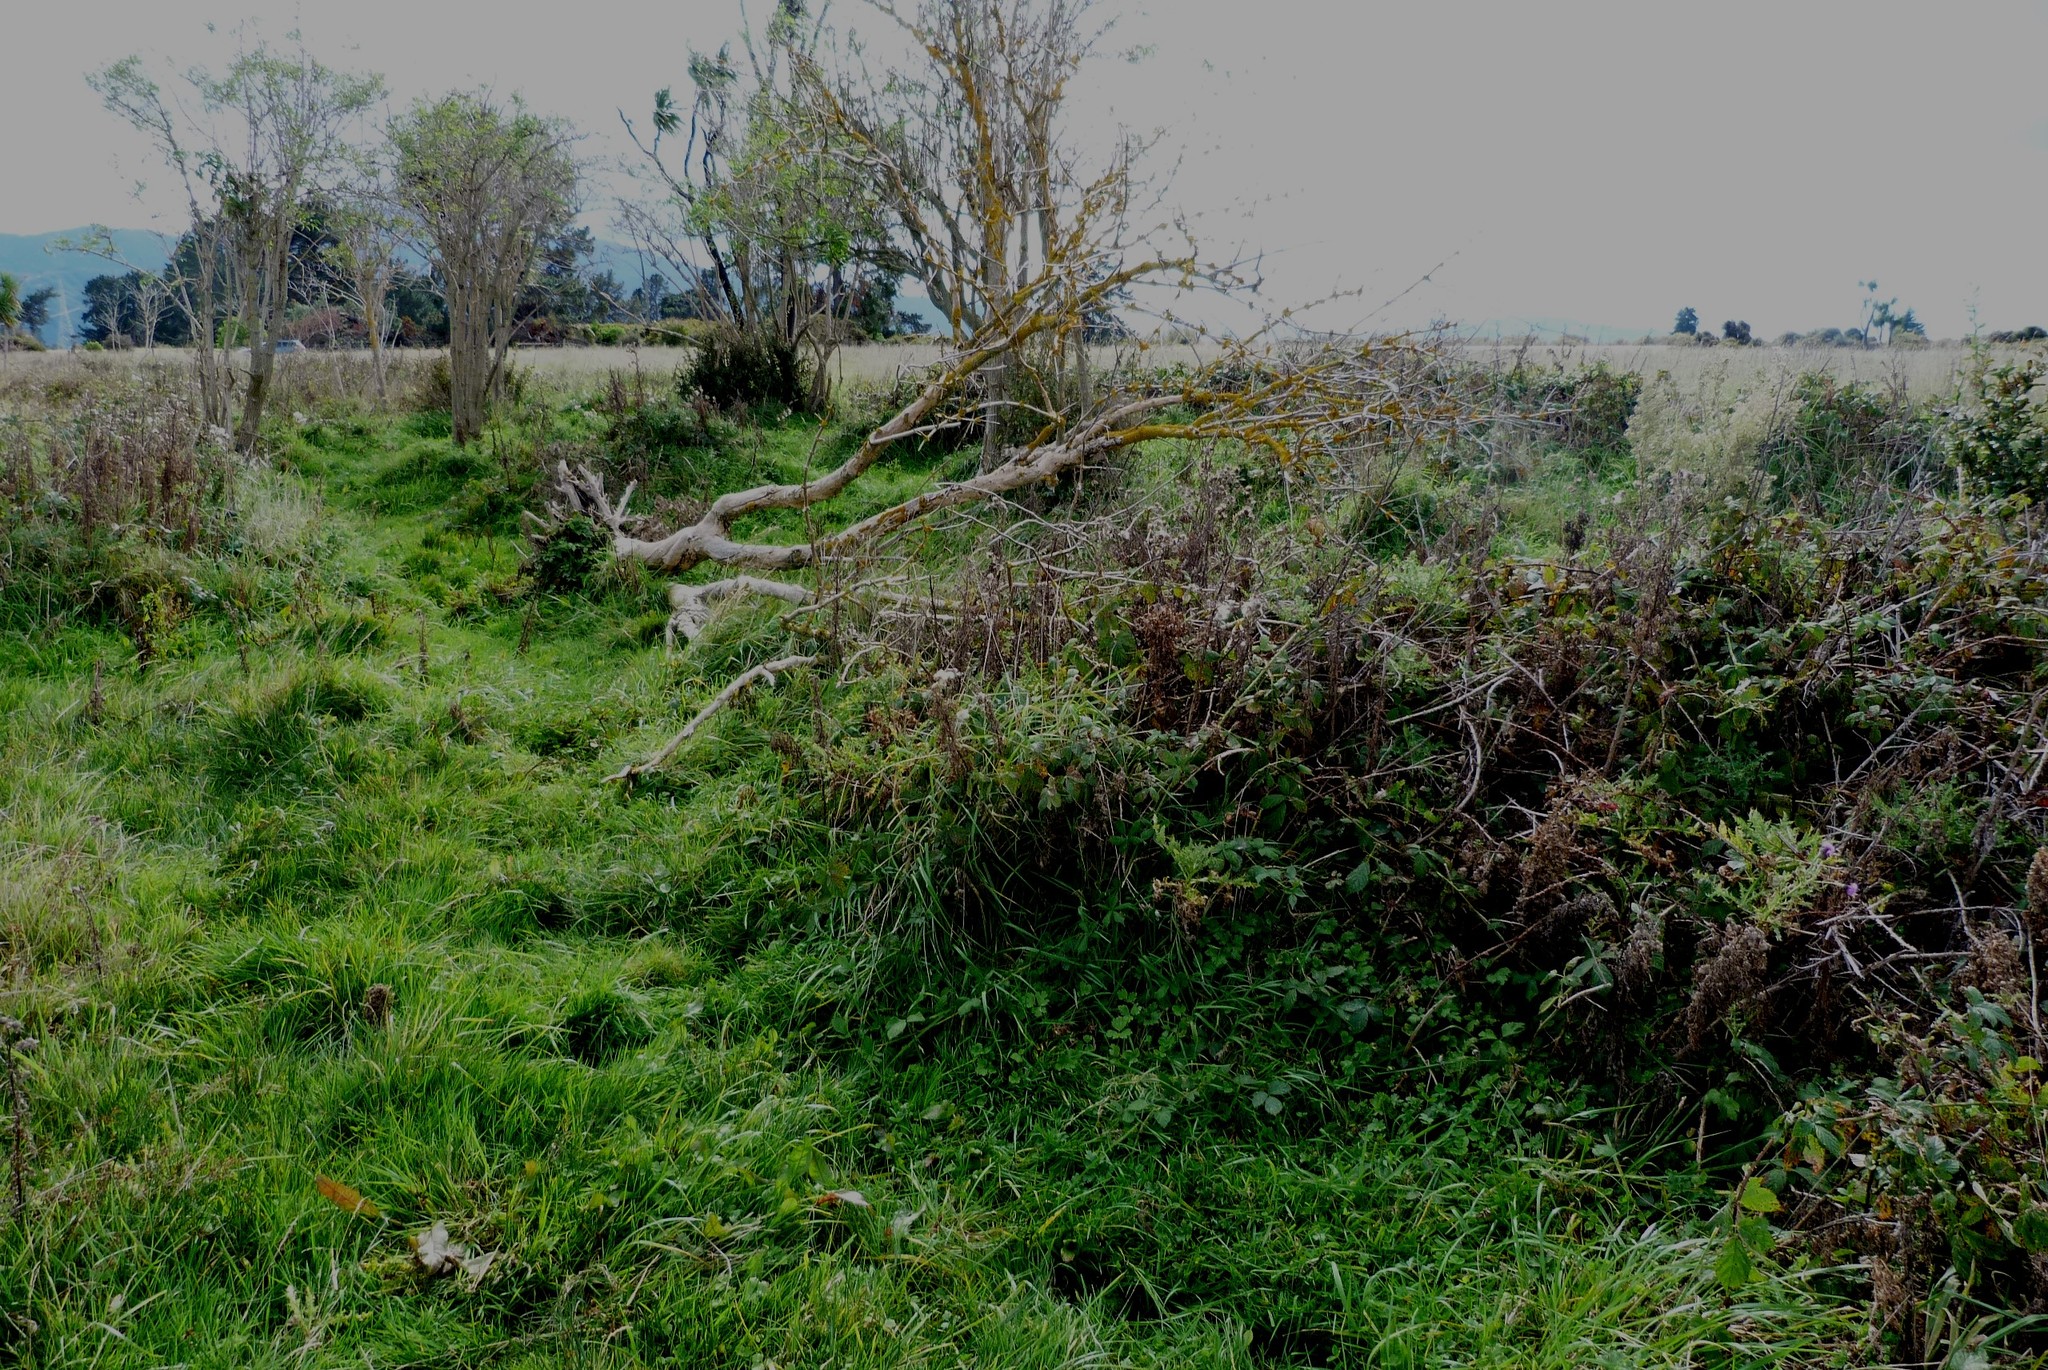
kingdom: Plantae
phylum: Tracheophyta
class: Magnoliopsida
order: Dipsacales
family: Viburnaceae
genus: Sambucus
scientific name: Sambucus nigra
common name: Elder
